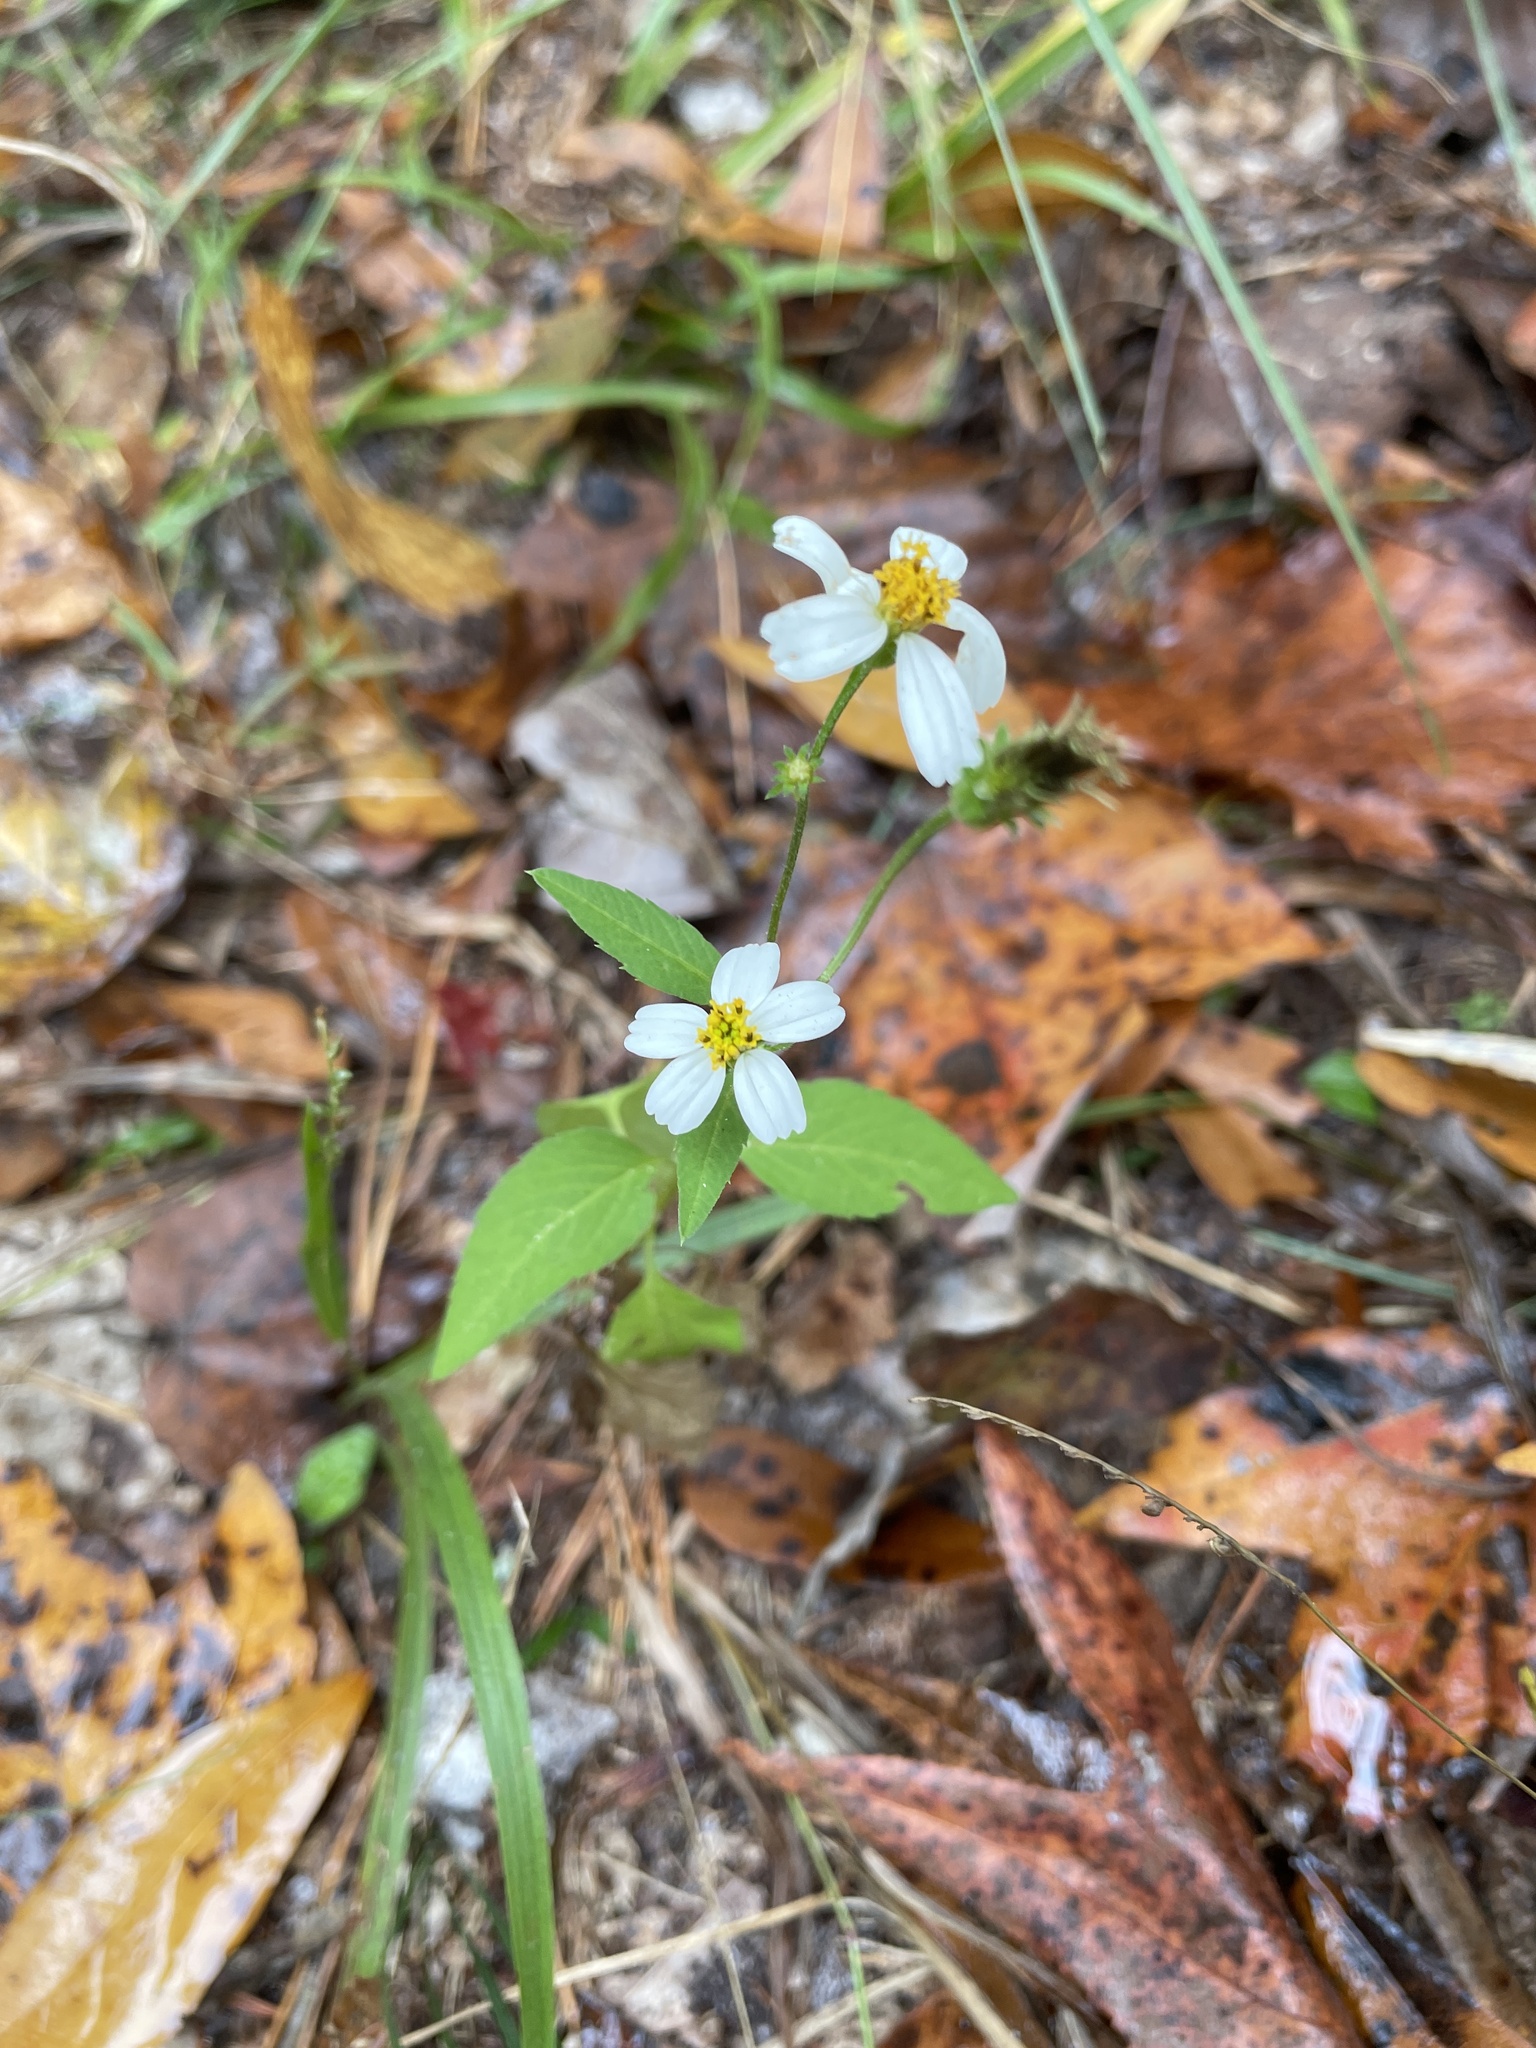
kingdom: Plantae
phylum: Tracheophyta
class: Magnoliopsida
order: Asterales
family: Asteraceae
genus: Bidens
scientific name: Bidens alba
